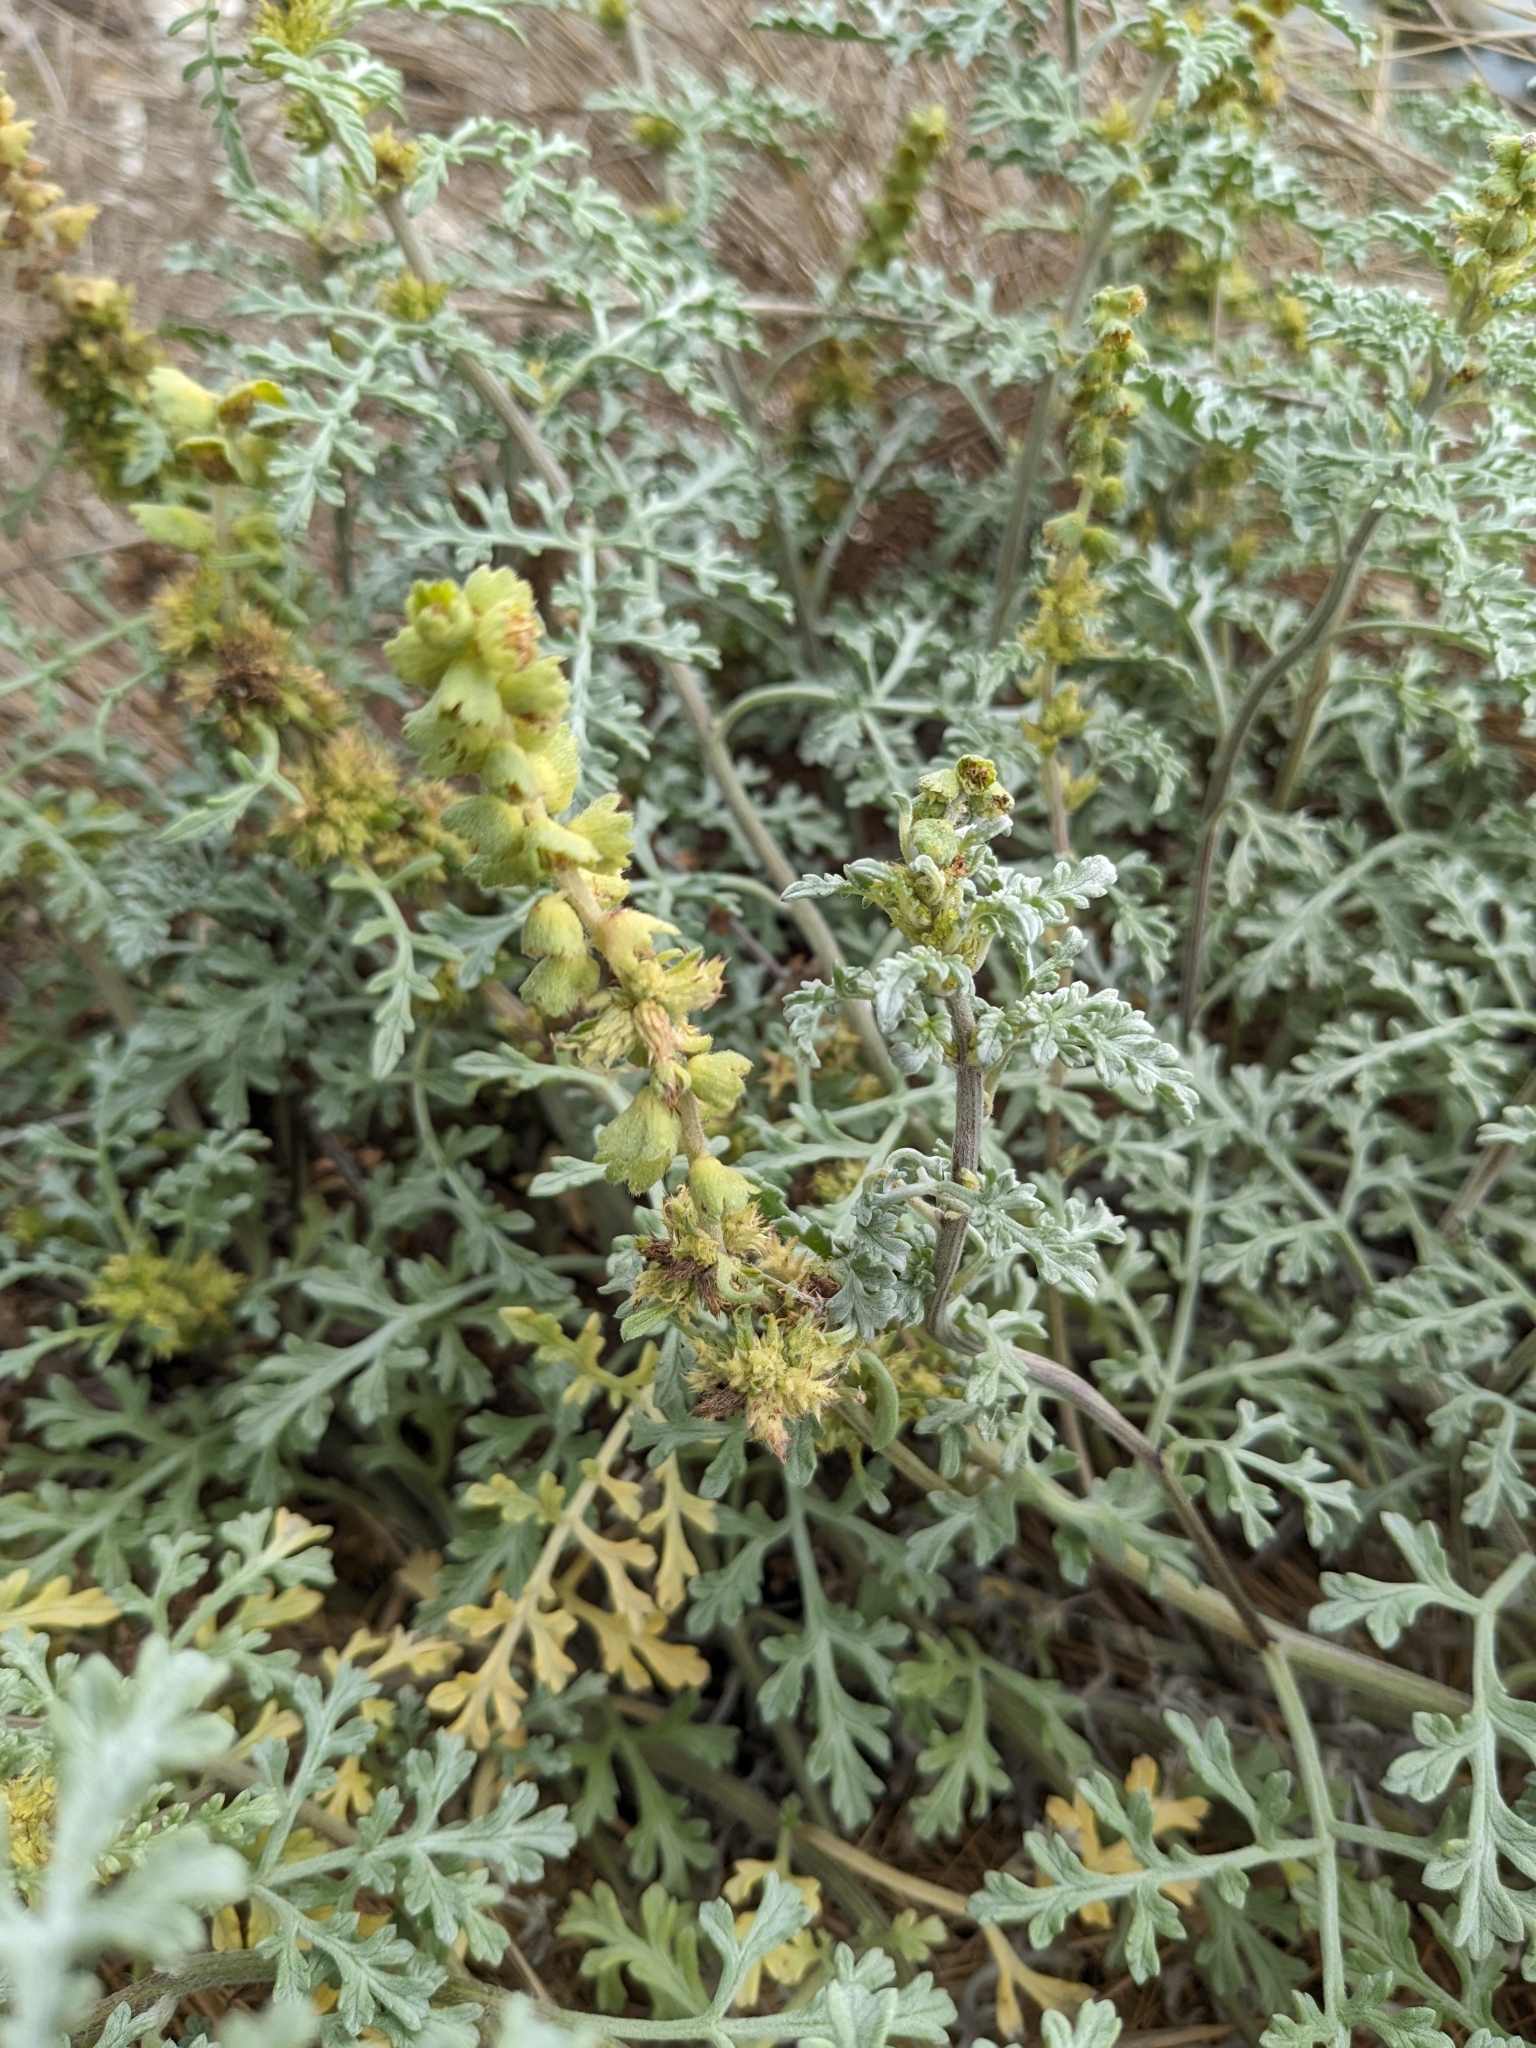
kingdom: Plantae
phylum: Tracheophyta
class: Magnoliopsida
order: Asterales
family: Asteraceae
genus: Ambrosia
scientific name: Ambrosia chamissonis
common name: Beachbur
